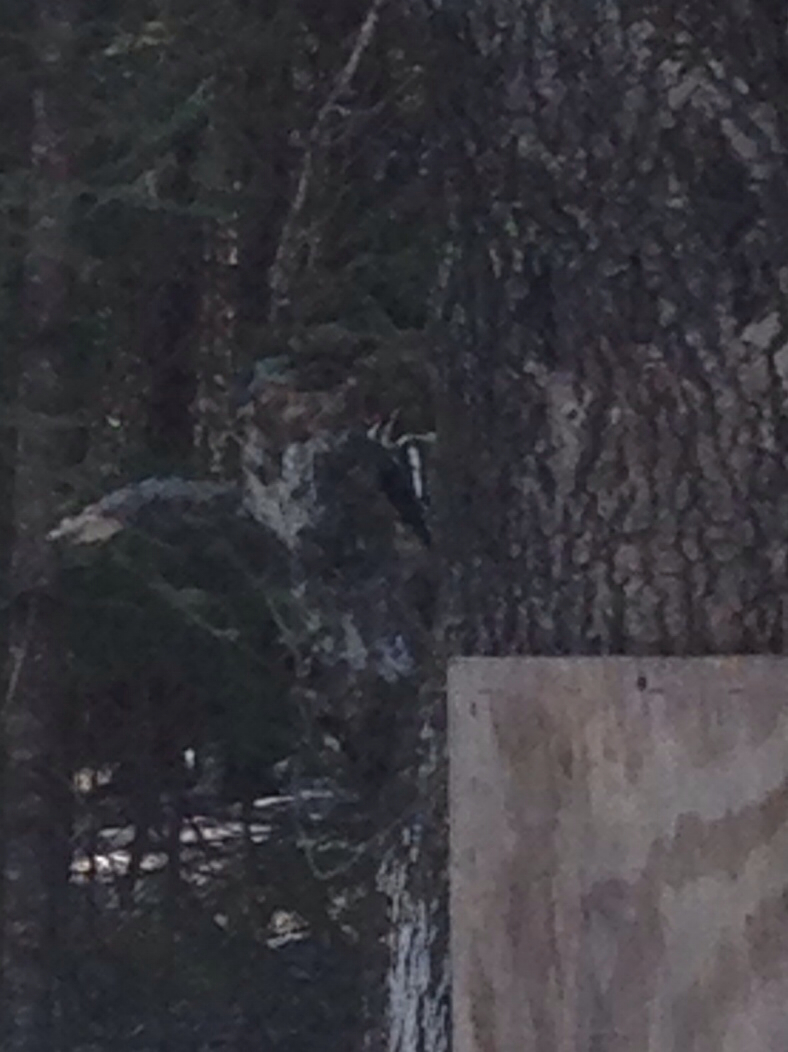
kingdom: Animalia
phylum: Chordata
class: Aves
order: Piciformes
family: Picidae
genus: Sphyrapicus
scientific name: Sphyrapicus varius
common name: Yellow-bellied sapsucker
